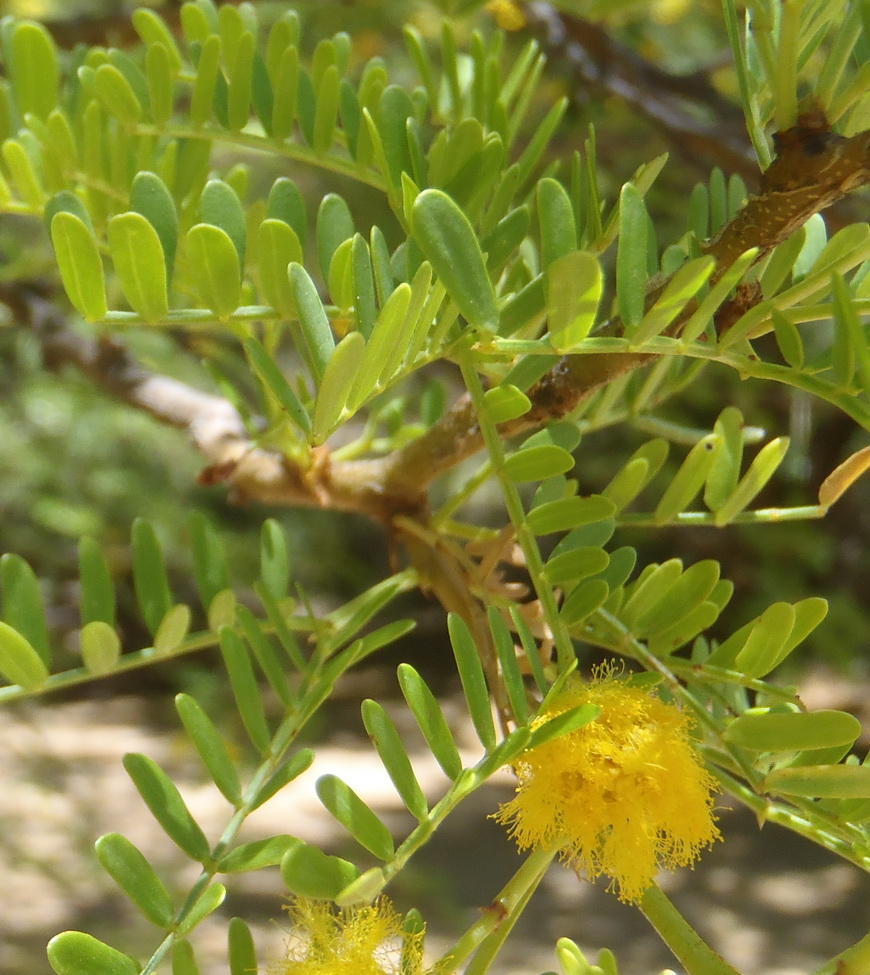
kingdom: Plantae
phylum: Tracheophyta
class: Magnoliopsida
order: Fabales
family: Fabaceae
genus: Vachellia
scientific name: Vachellia karroo
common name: Sweet thorn
